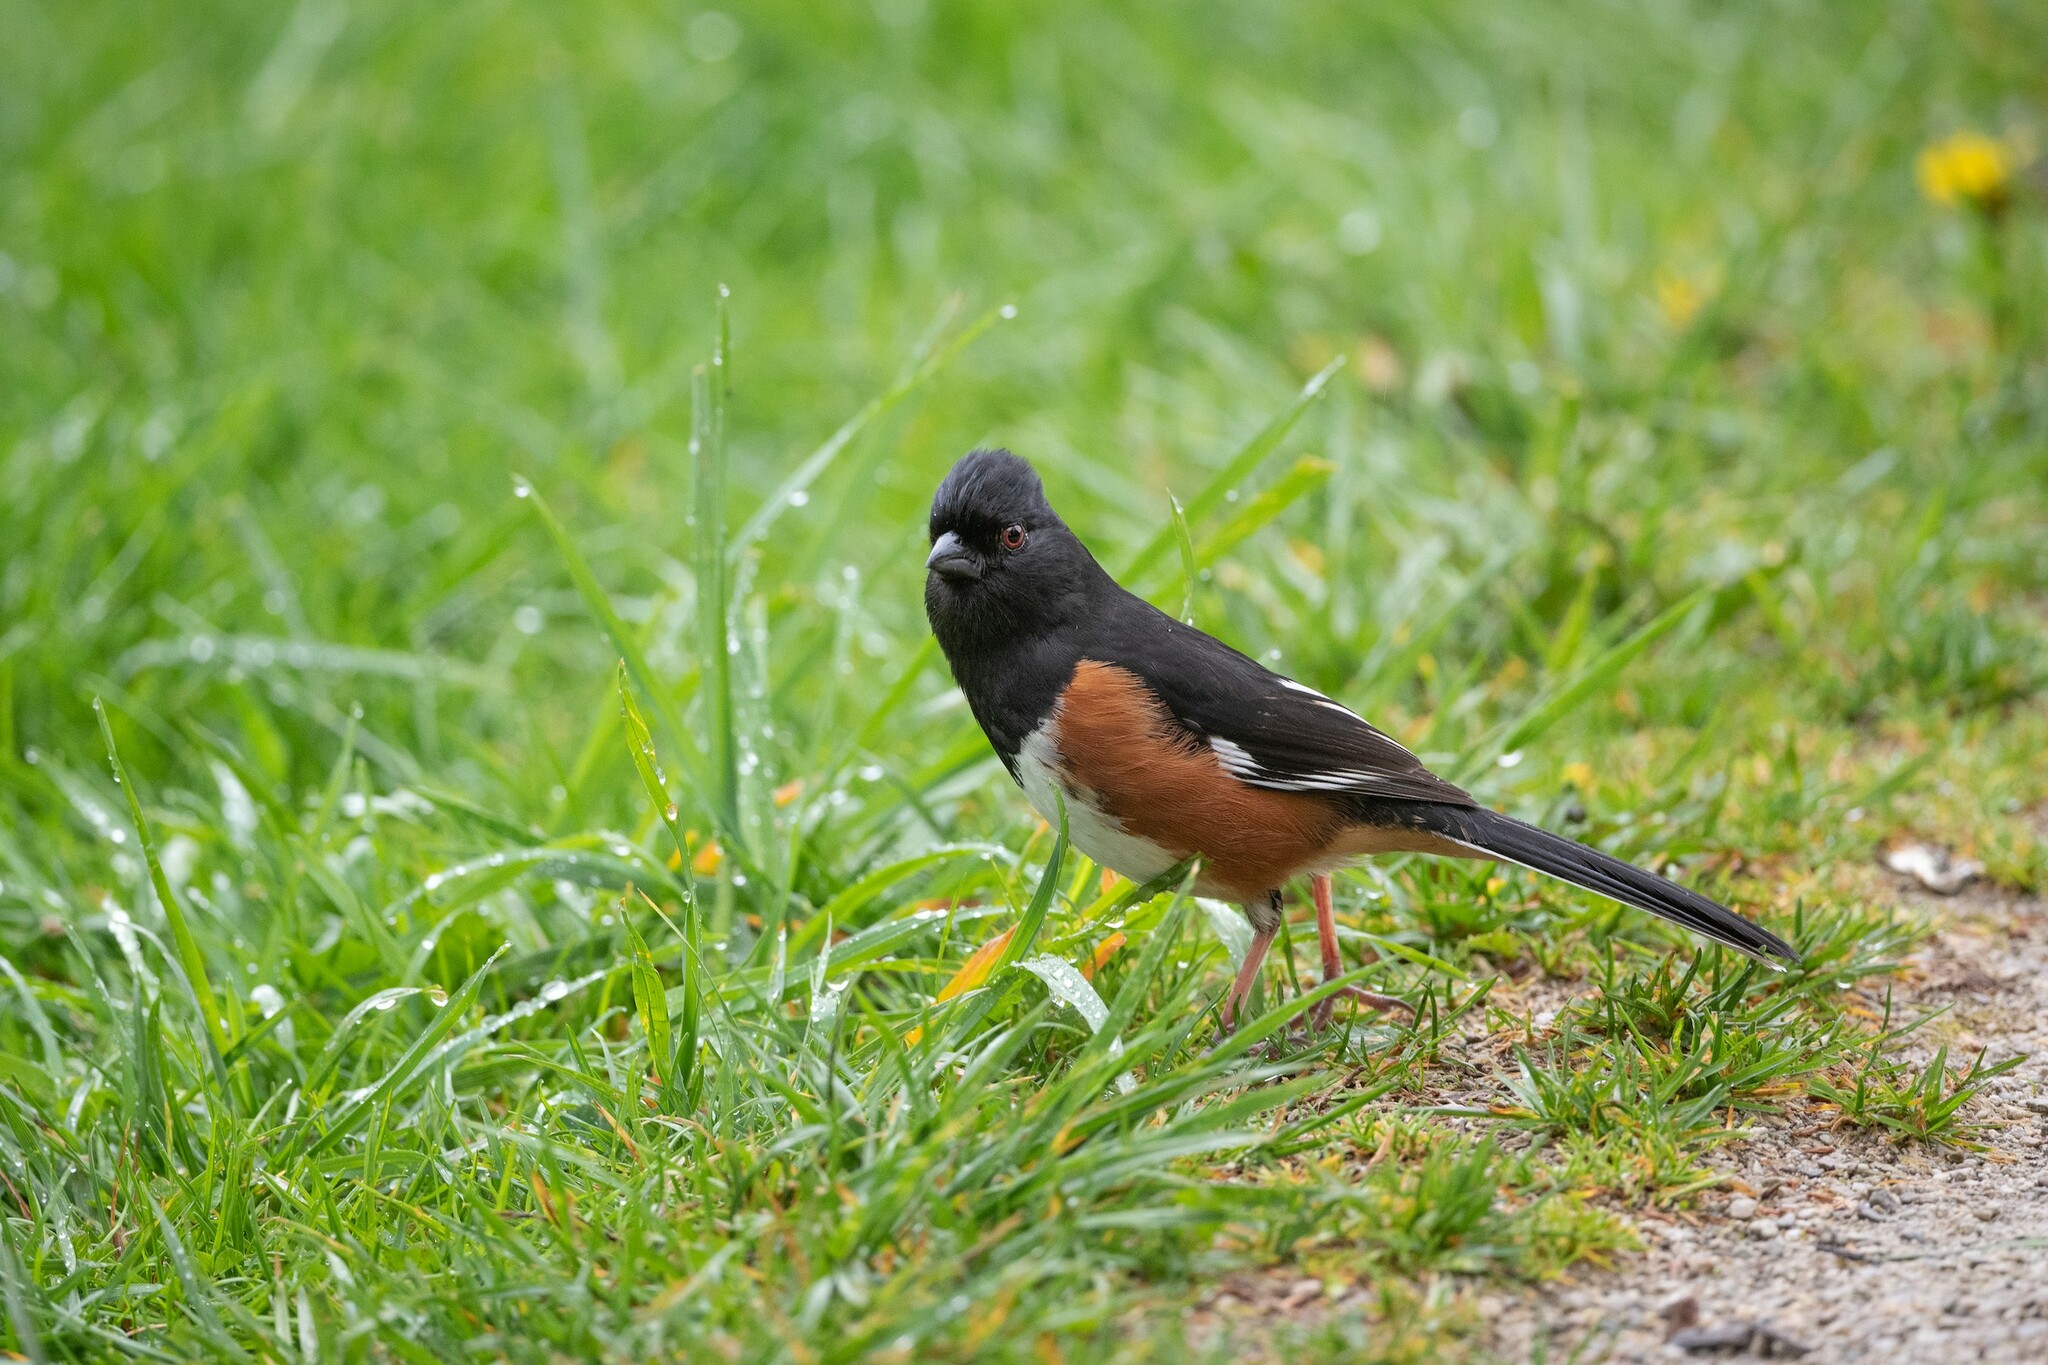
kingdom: Animalia
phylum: Chordata
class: Aves
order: Passeriformes
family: Passerellidae
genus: Pipilo
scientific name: Pipilo erythrophthalmus
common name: Eastern towhee
